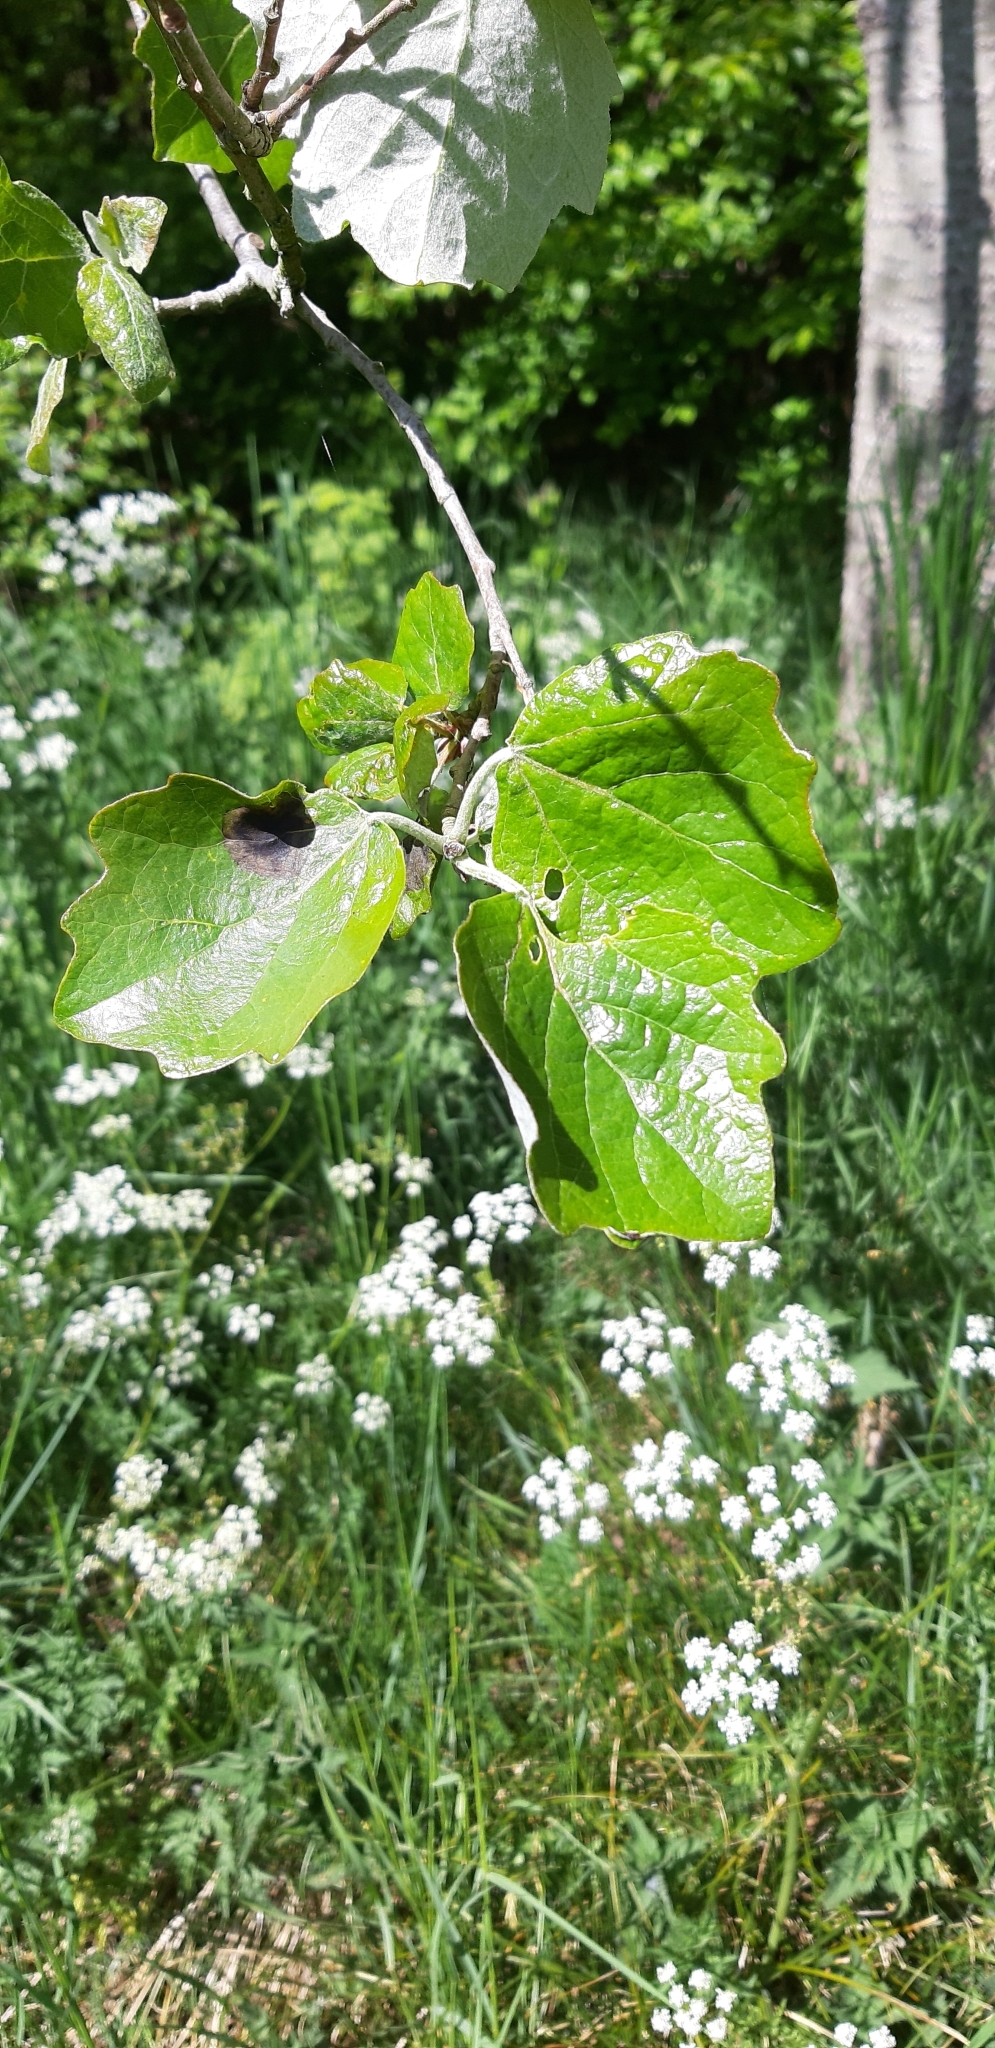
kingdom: Plantae
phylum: Tracheophyta
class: Magnoliopsida
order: Malpighiales
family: Salicaceae
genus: Populus
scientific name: Populus alba
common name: White poplar
